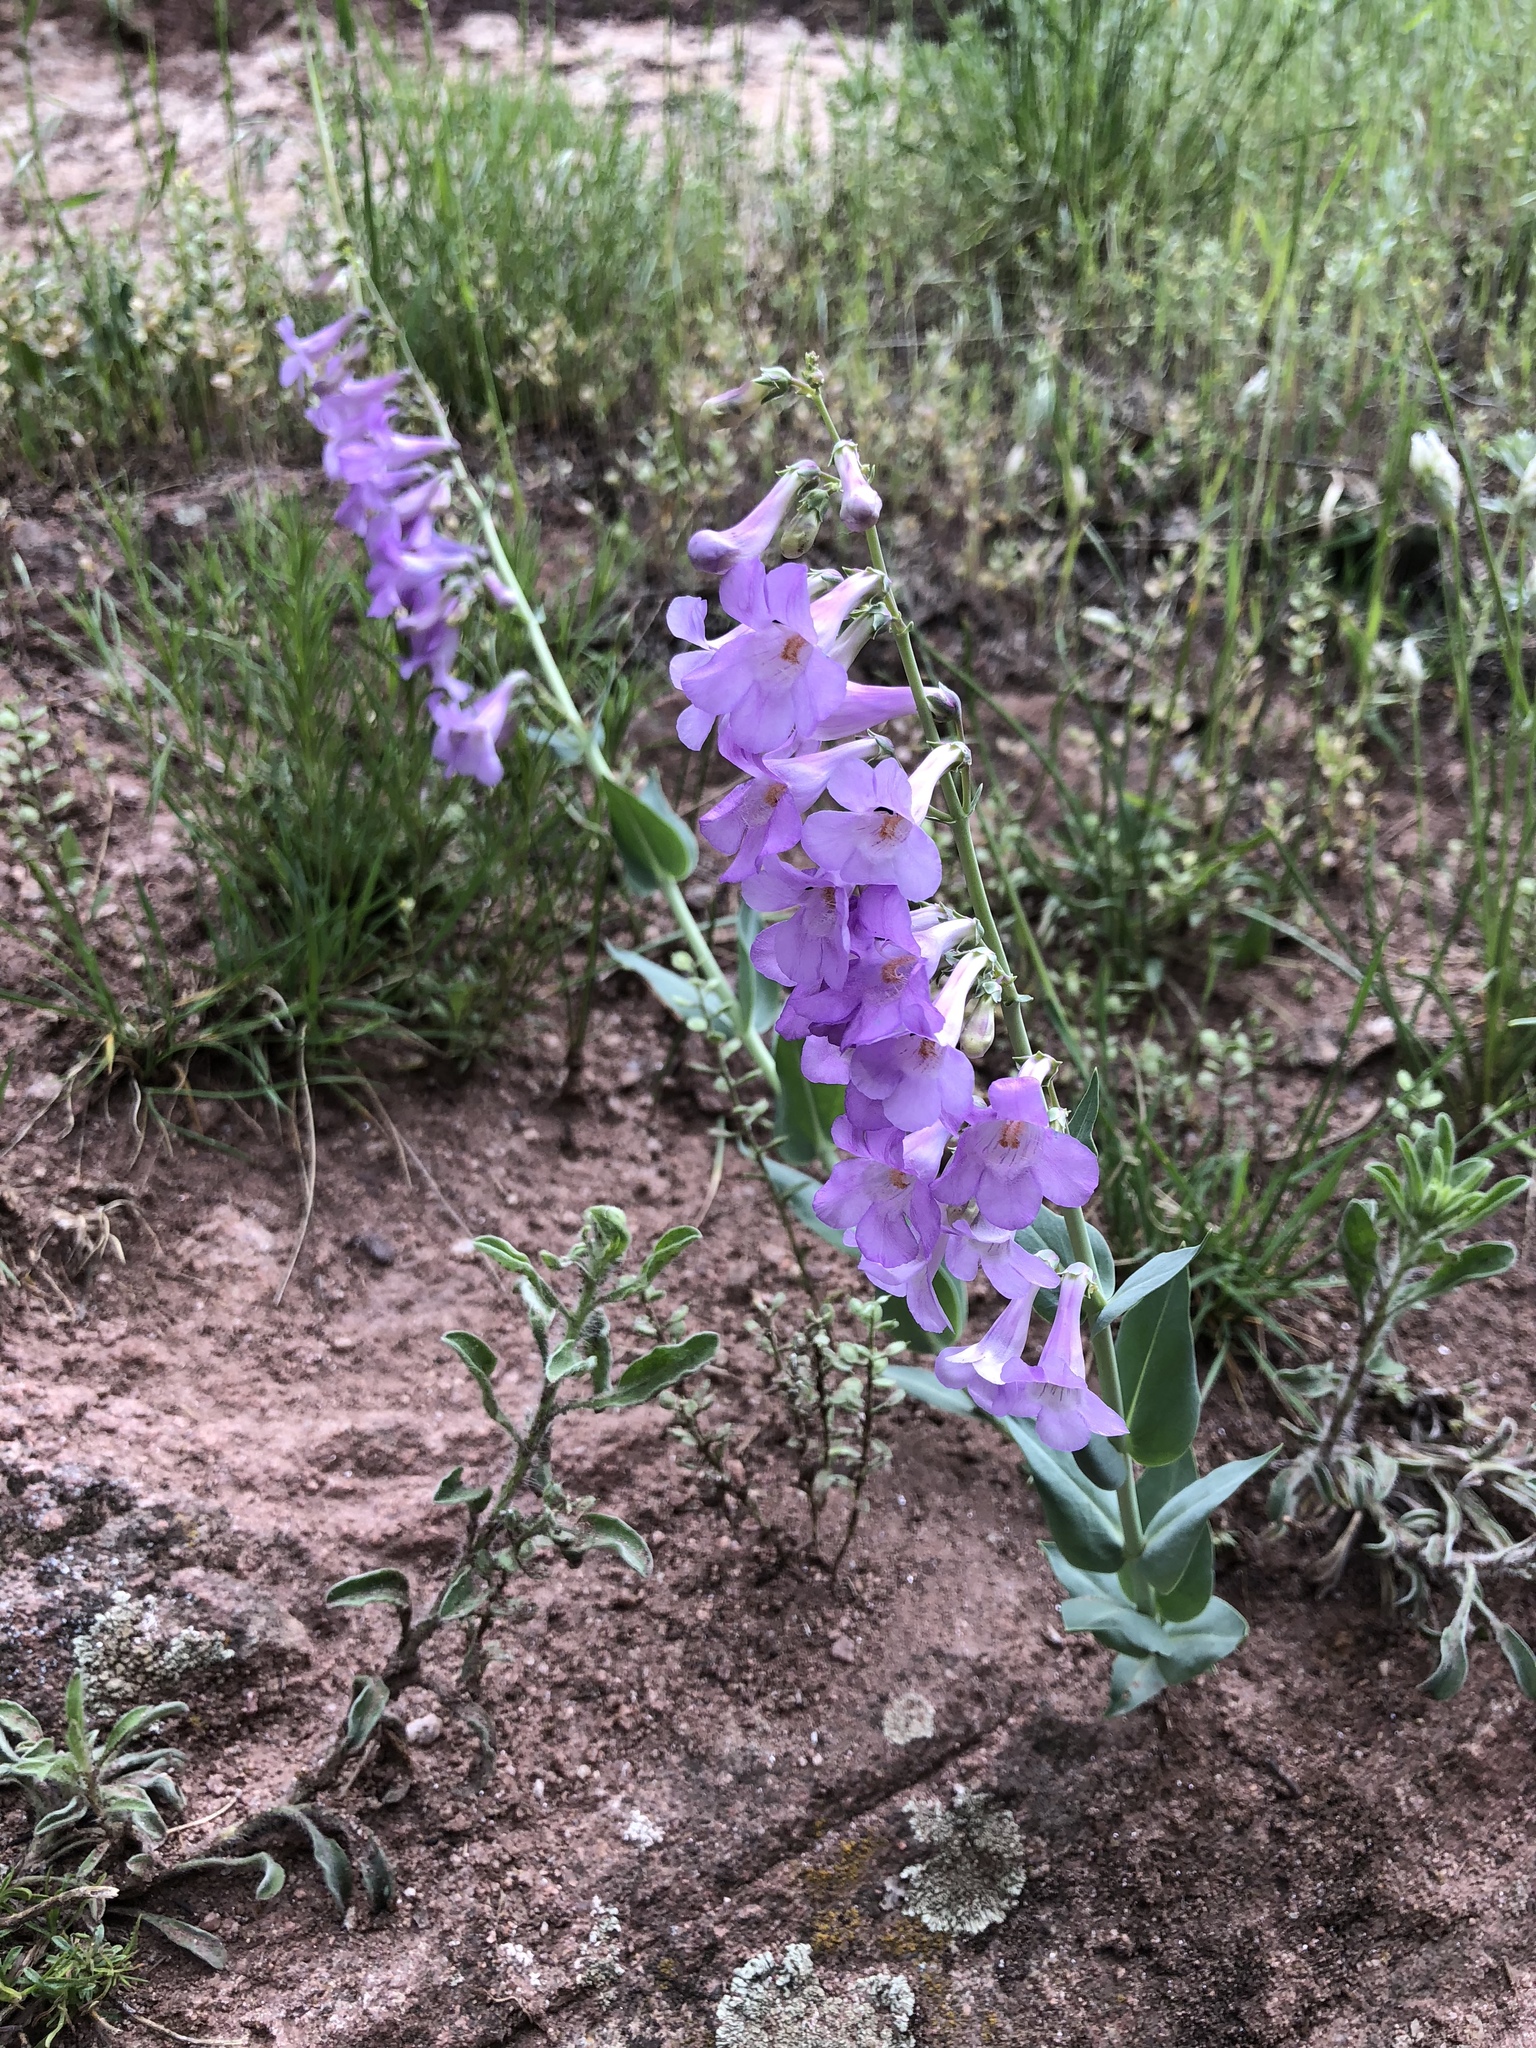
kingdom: Plantae
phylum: Tracheophyta
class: Magnoliopsida
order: Lamiales
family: Plantaginaceae
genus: Penstemon
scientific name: Penstemon secundiflorus
